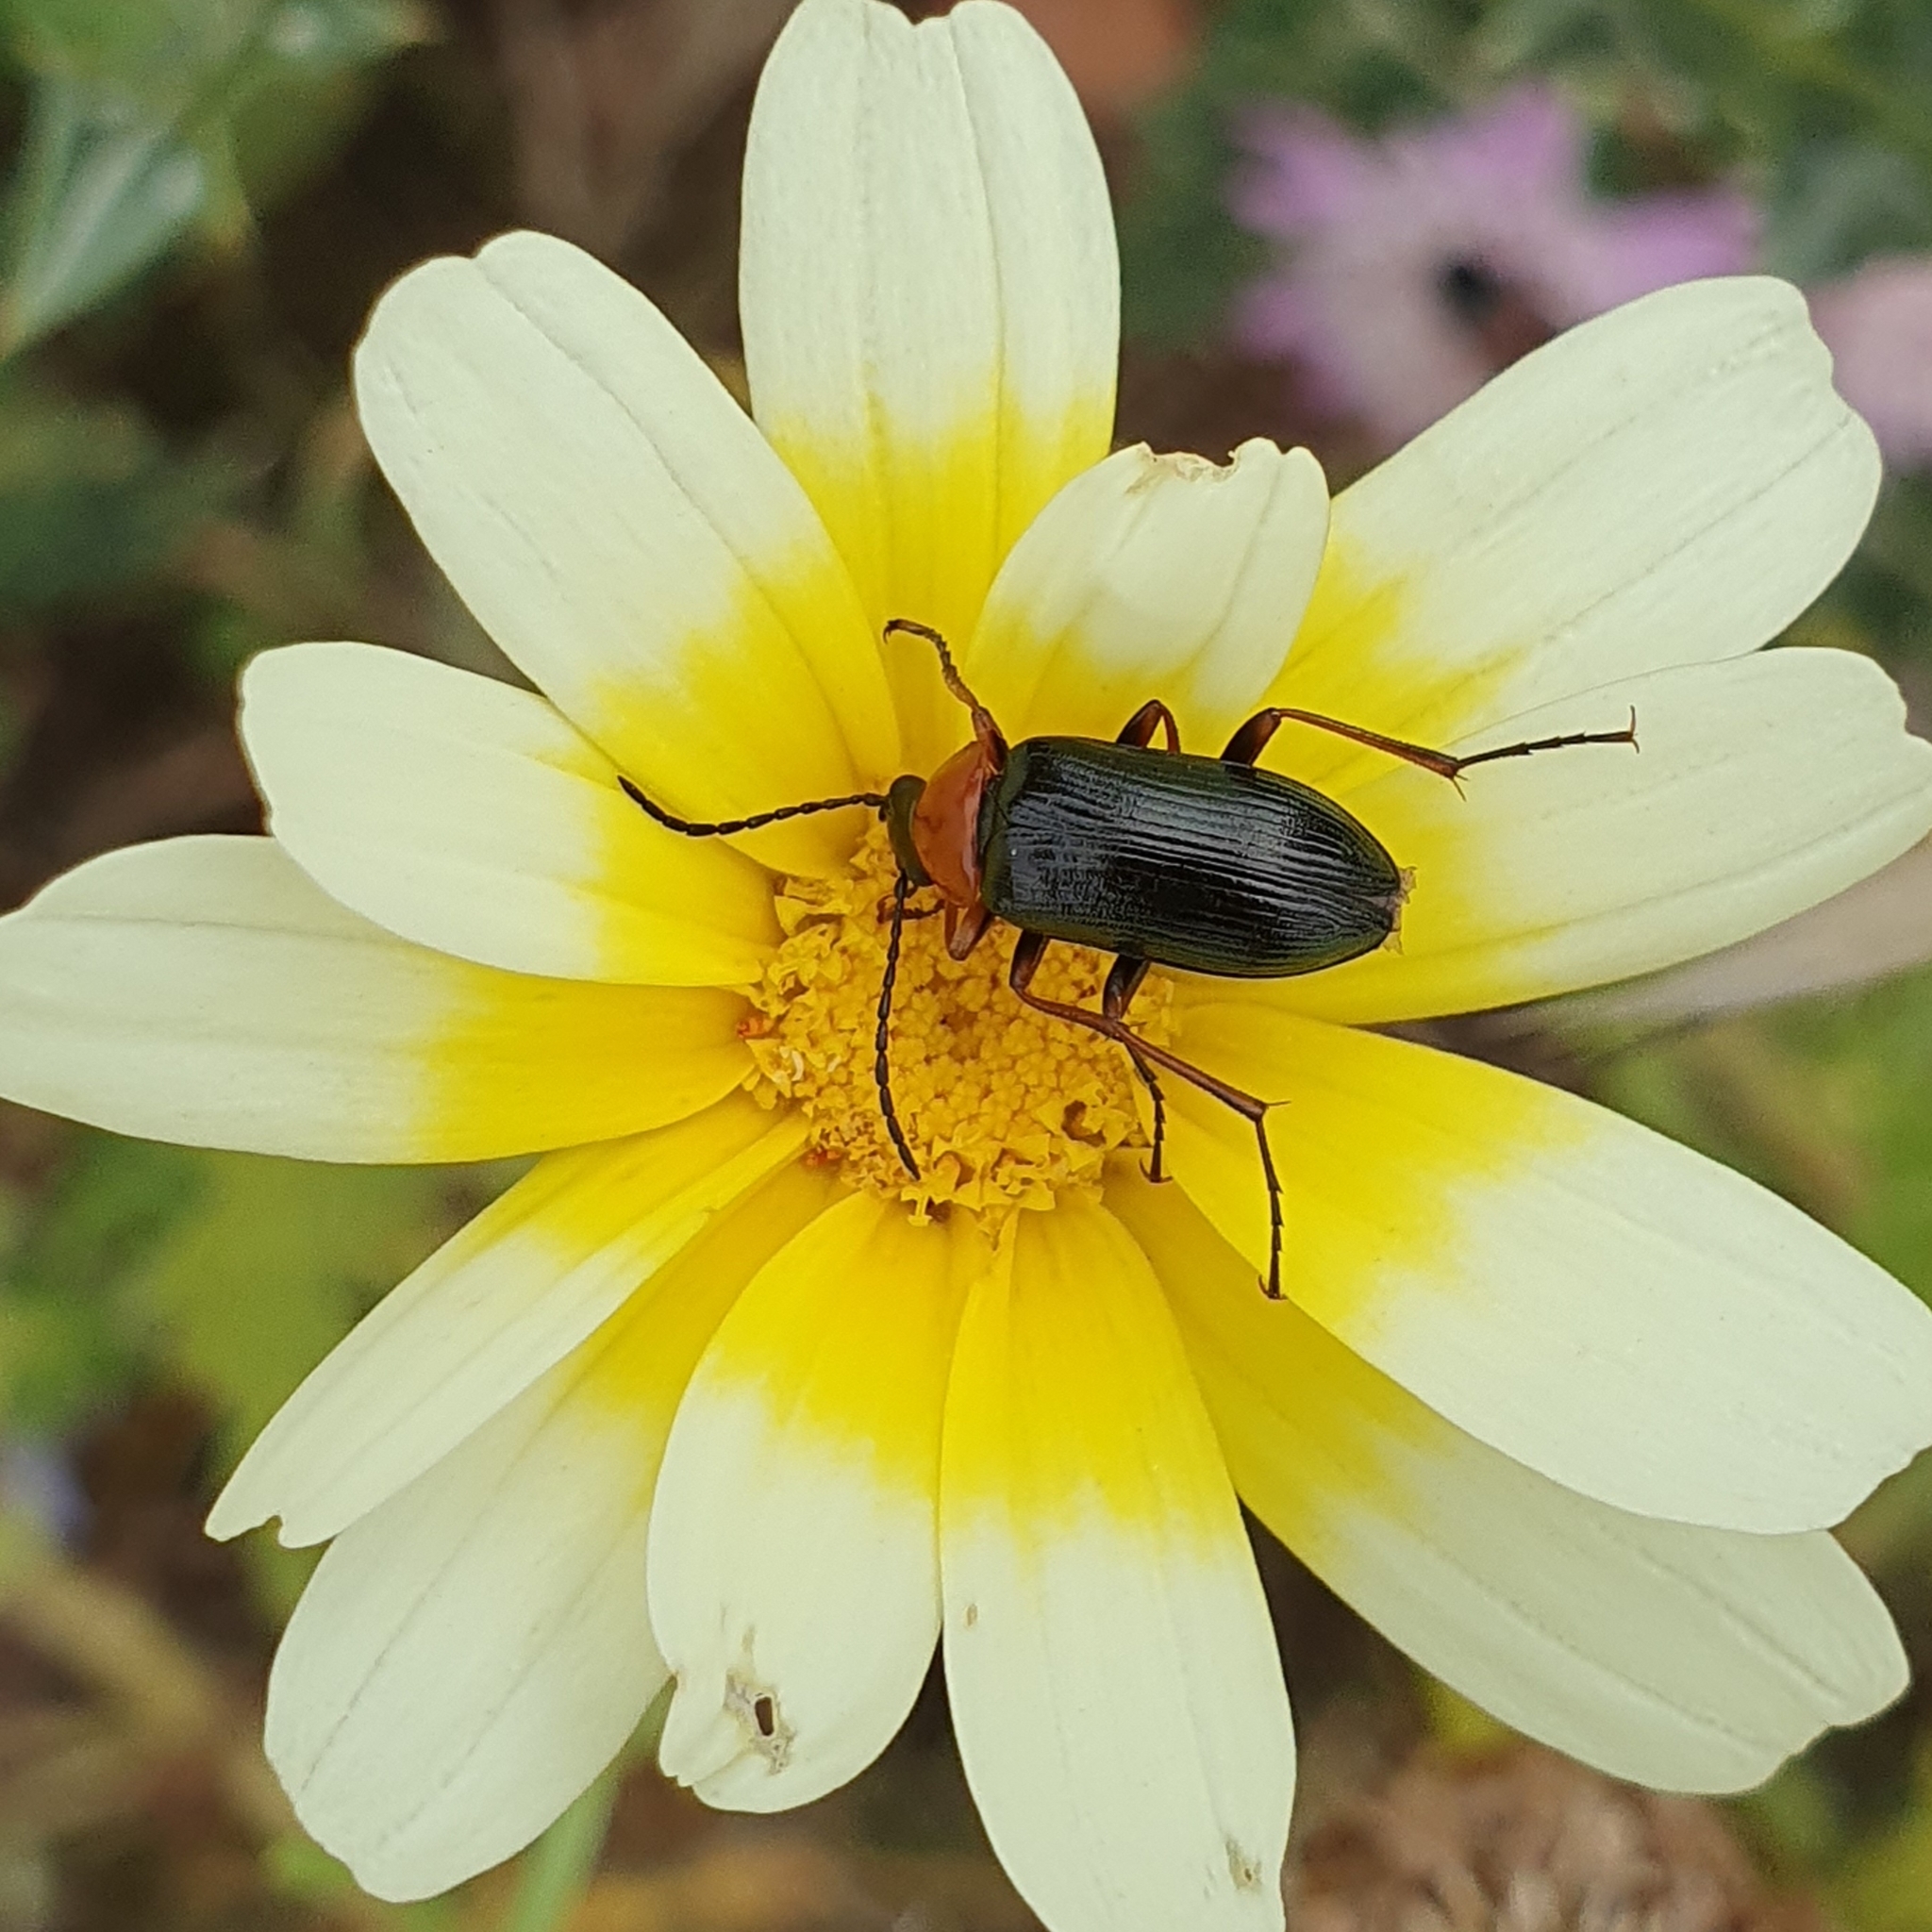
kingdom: Animalia
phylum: Arthropoda
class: Insecta
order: Coleoptera
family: Tenebrionidae
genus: Heliotaurus
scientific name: Heliotaurus ruficollis
